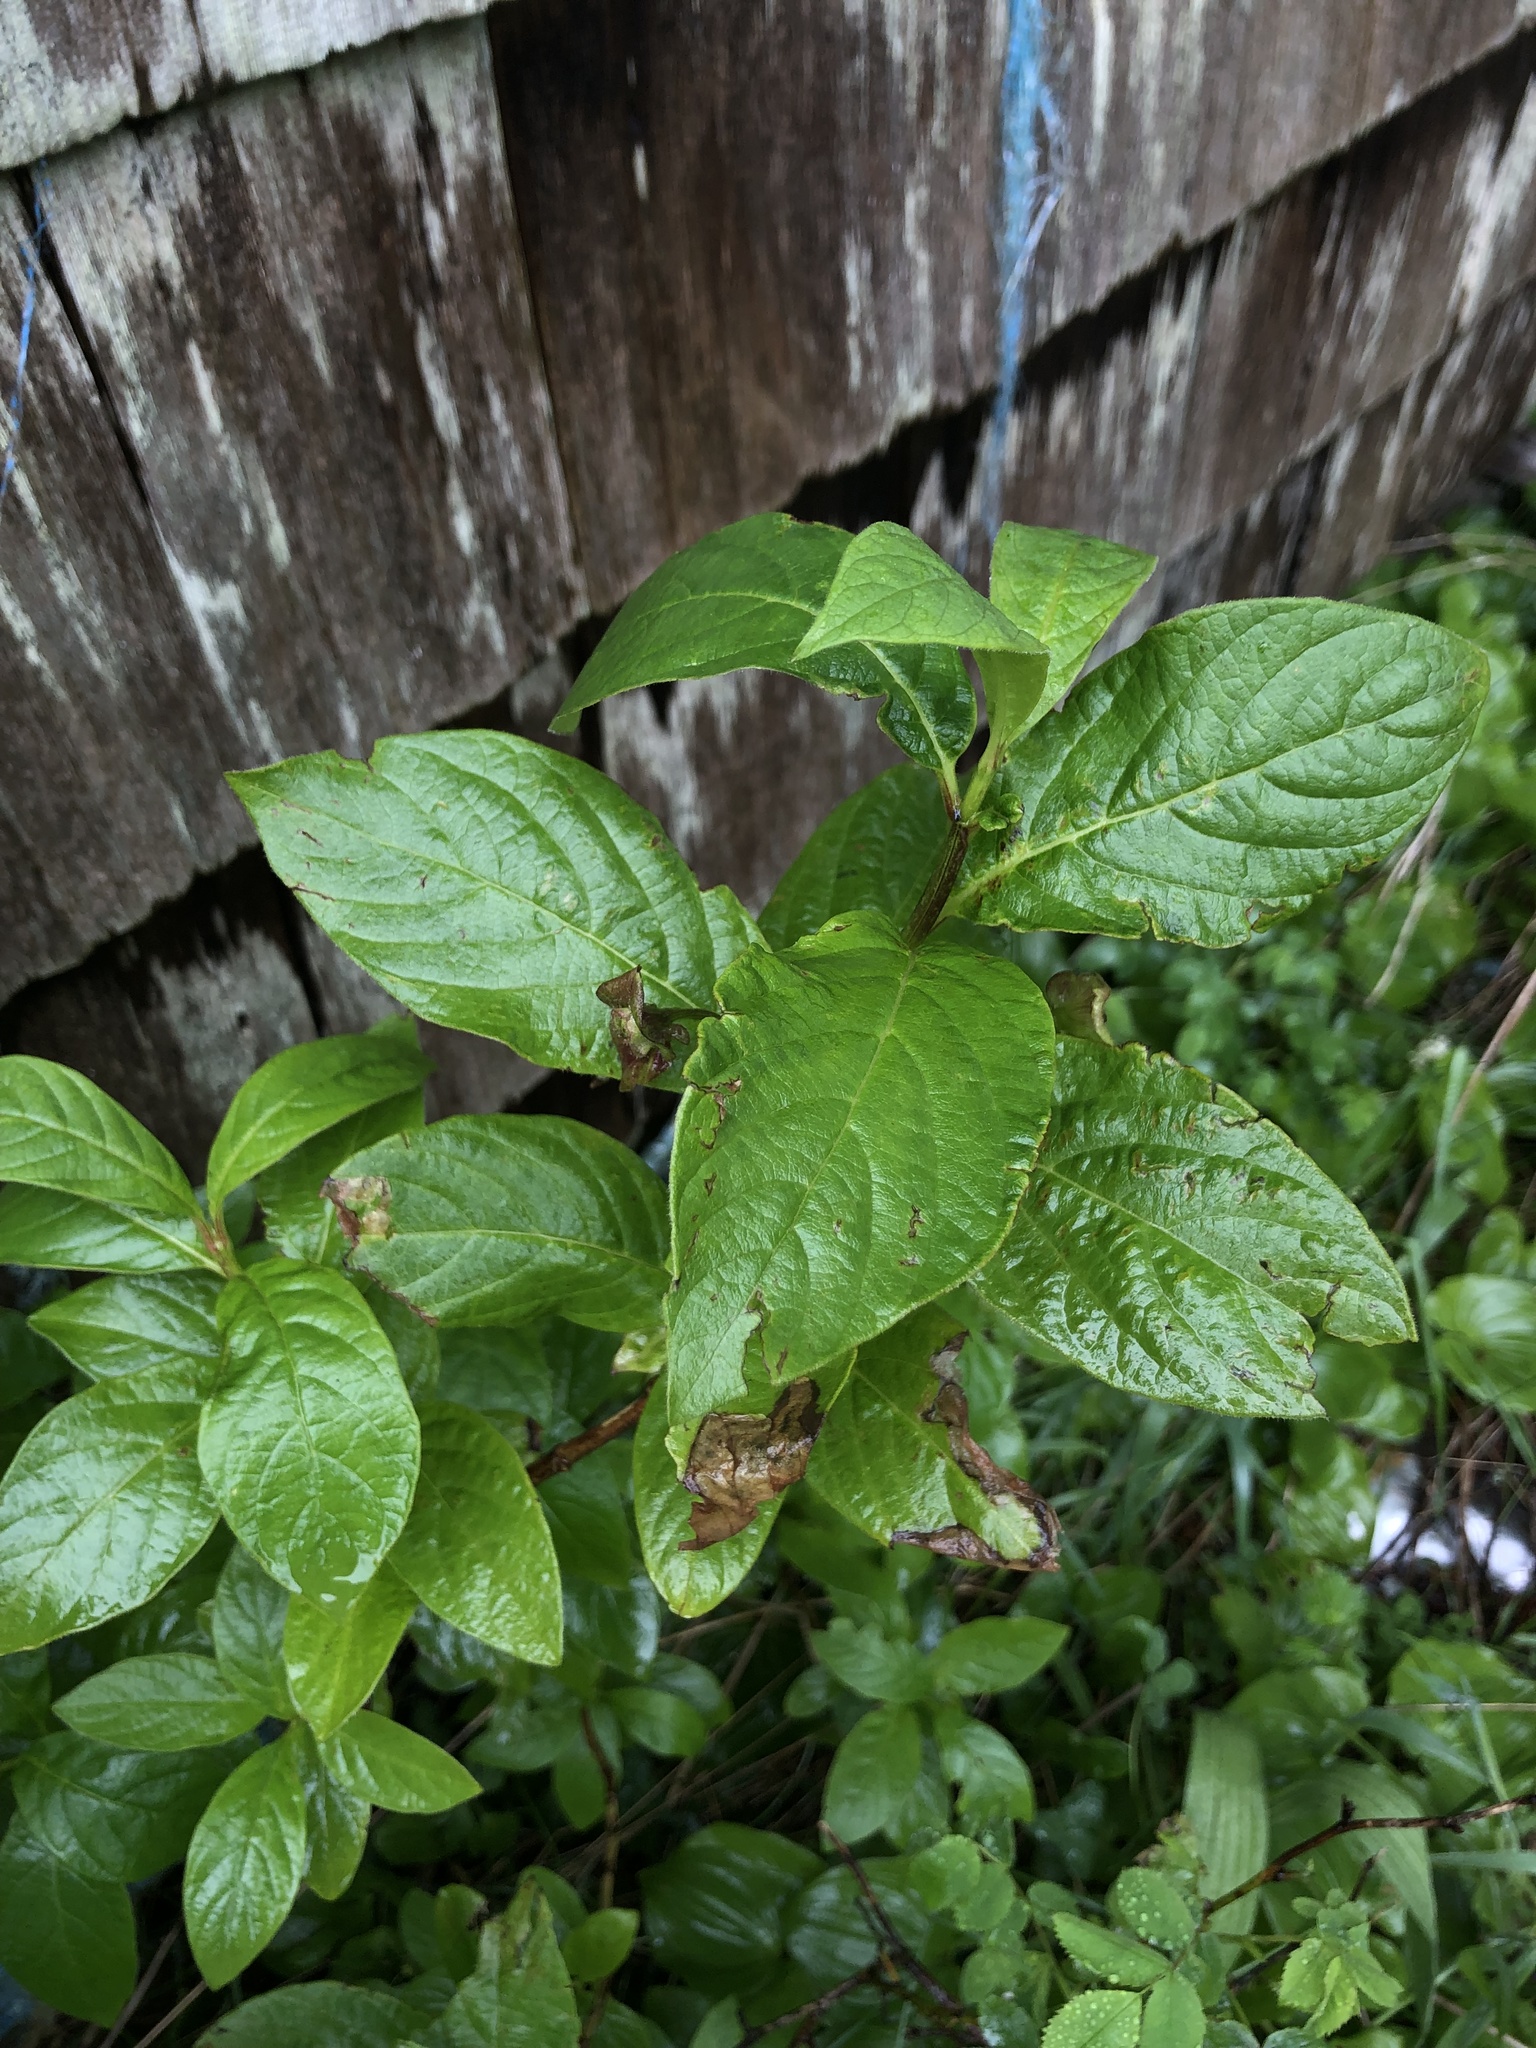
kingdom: Plantae
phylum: Tracheophyta
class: Magnoliopsida
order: Dipsacales
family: Caprifoliaceae
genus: Lonicera
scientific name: Lonicera involucrata
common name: Californian honeysuckle
